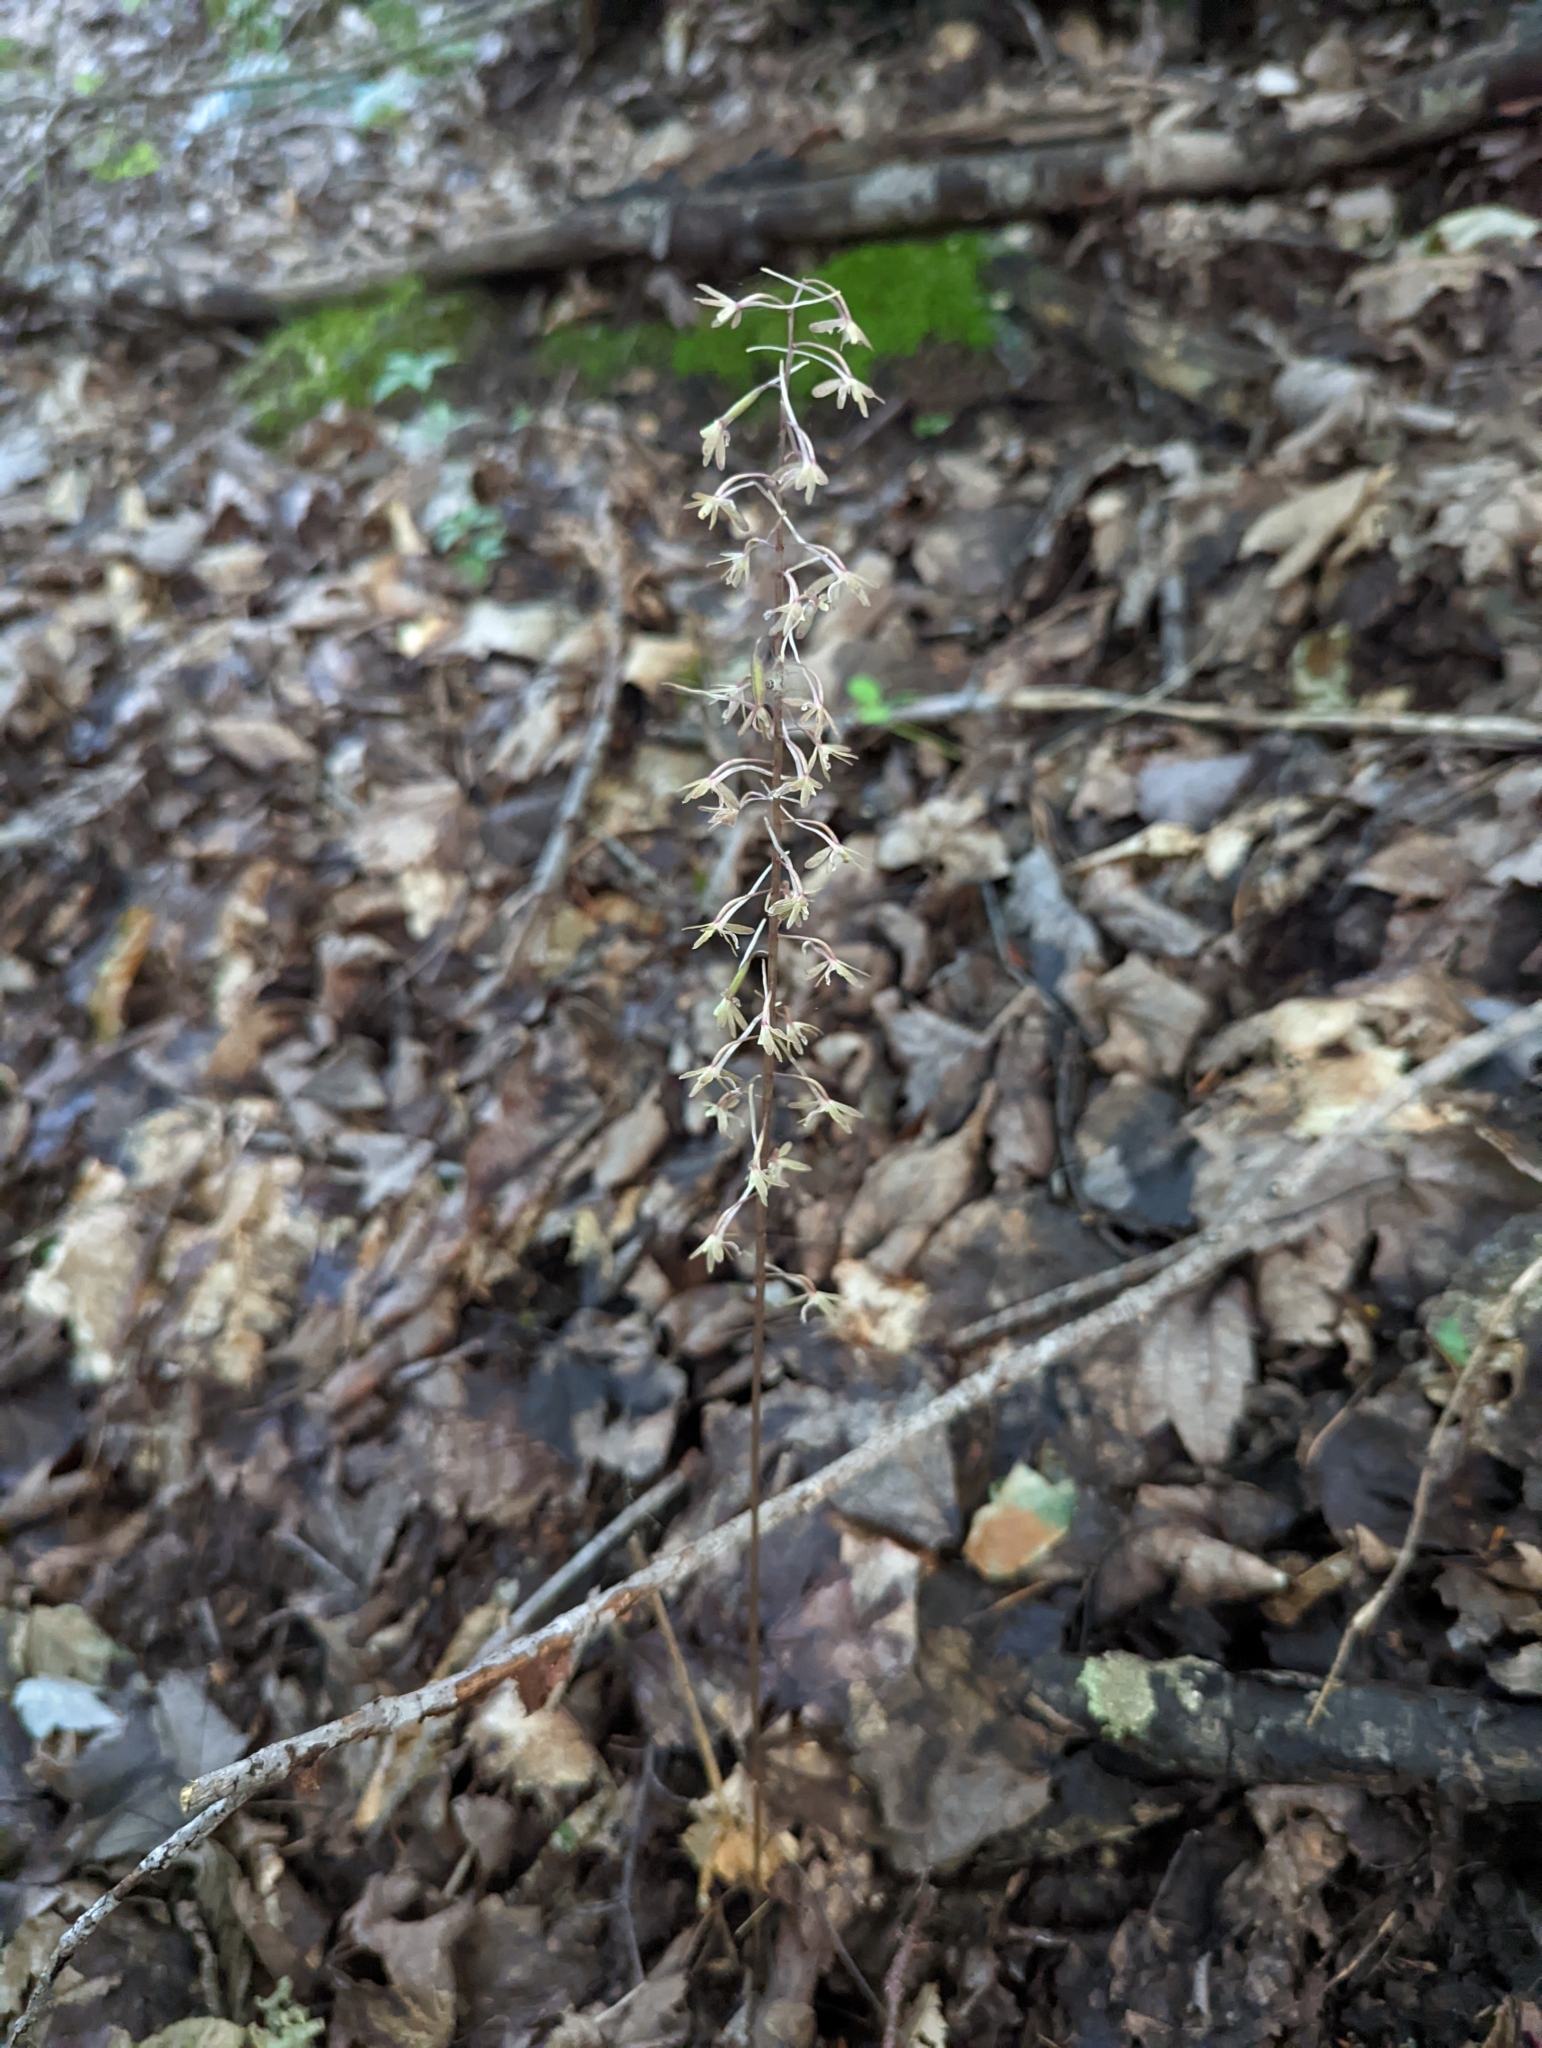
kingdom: Plantae
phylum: Tracheophyta
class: Liliopsida
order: Asparagales
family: Orchidaceae
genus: Tipularia
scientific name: Tipularia discolor
